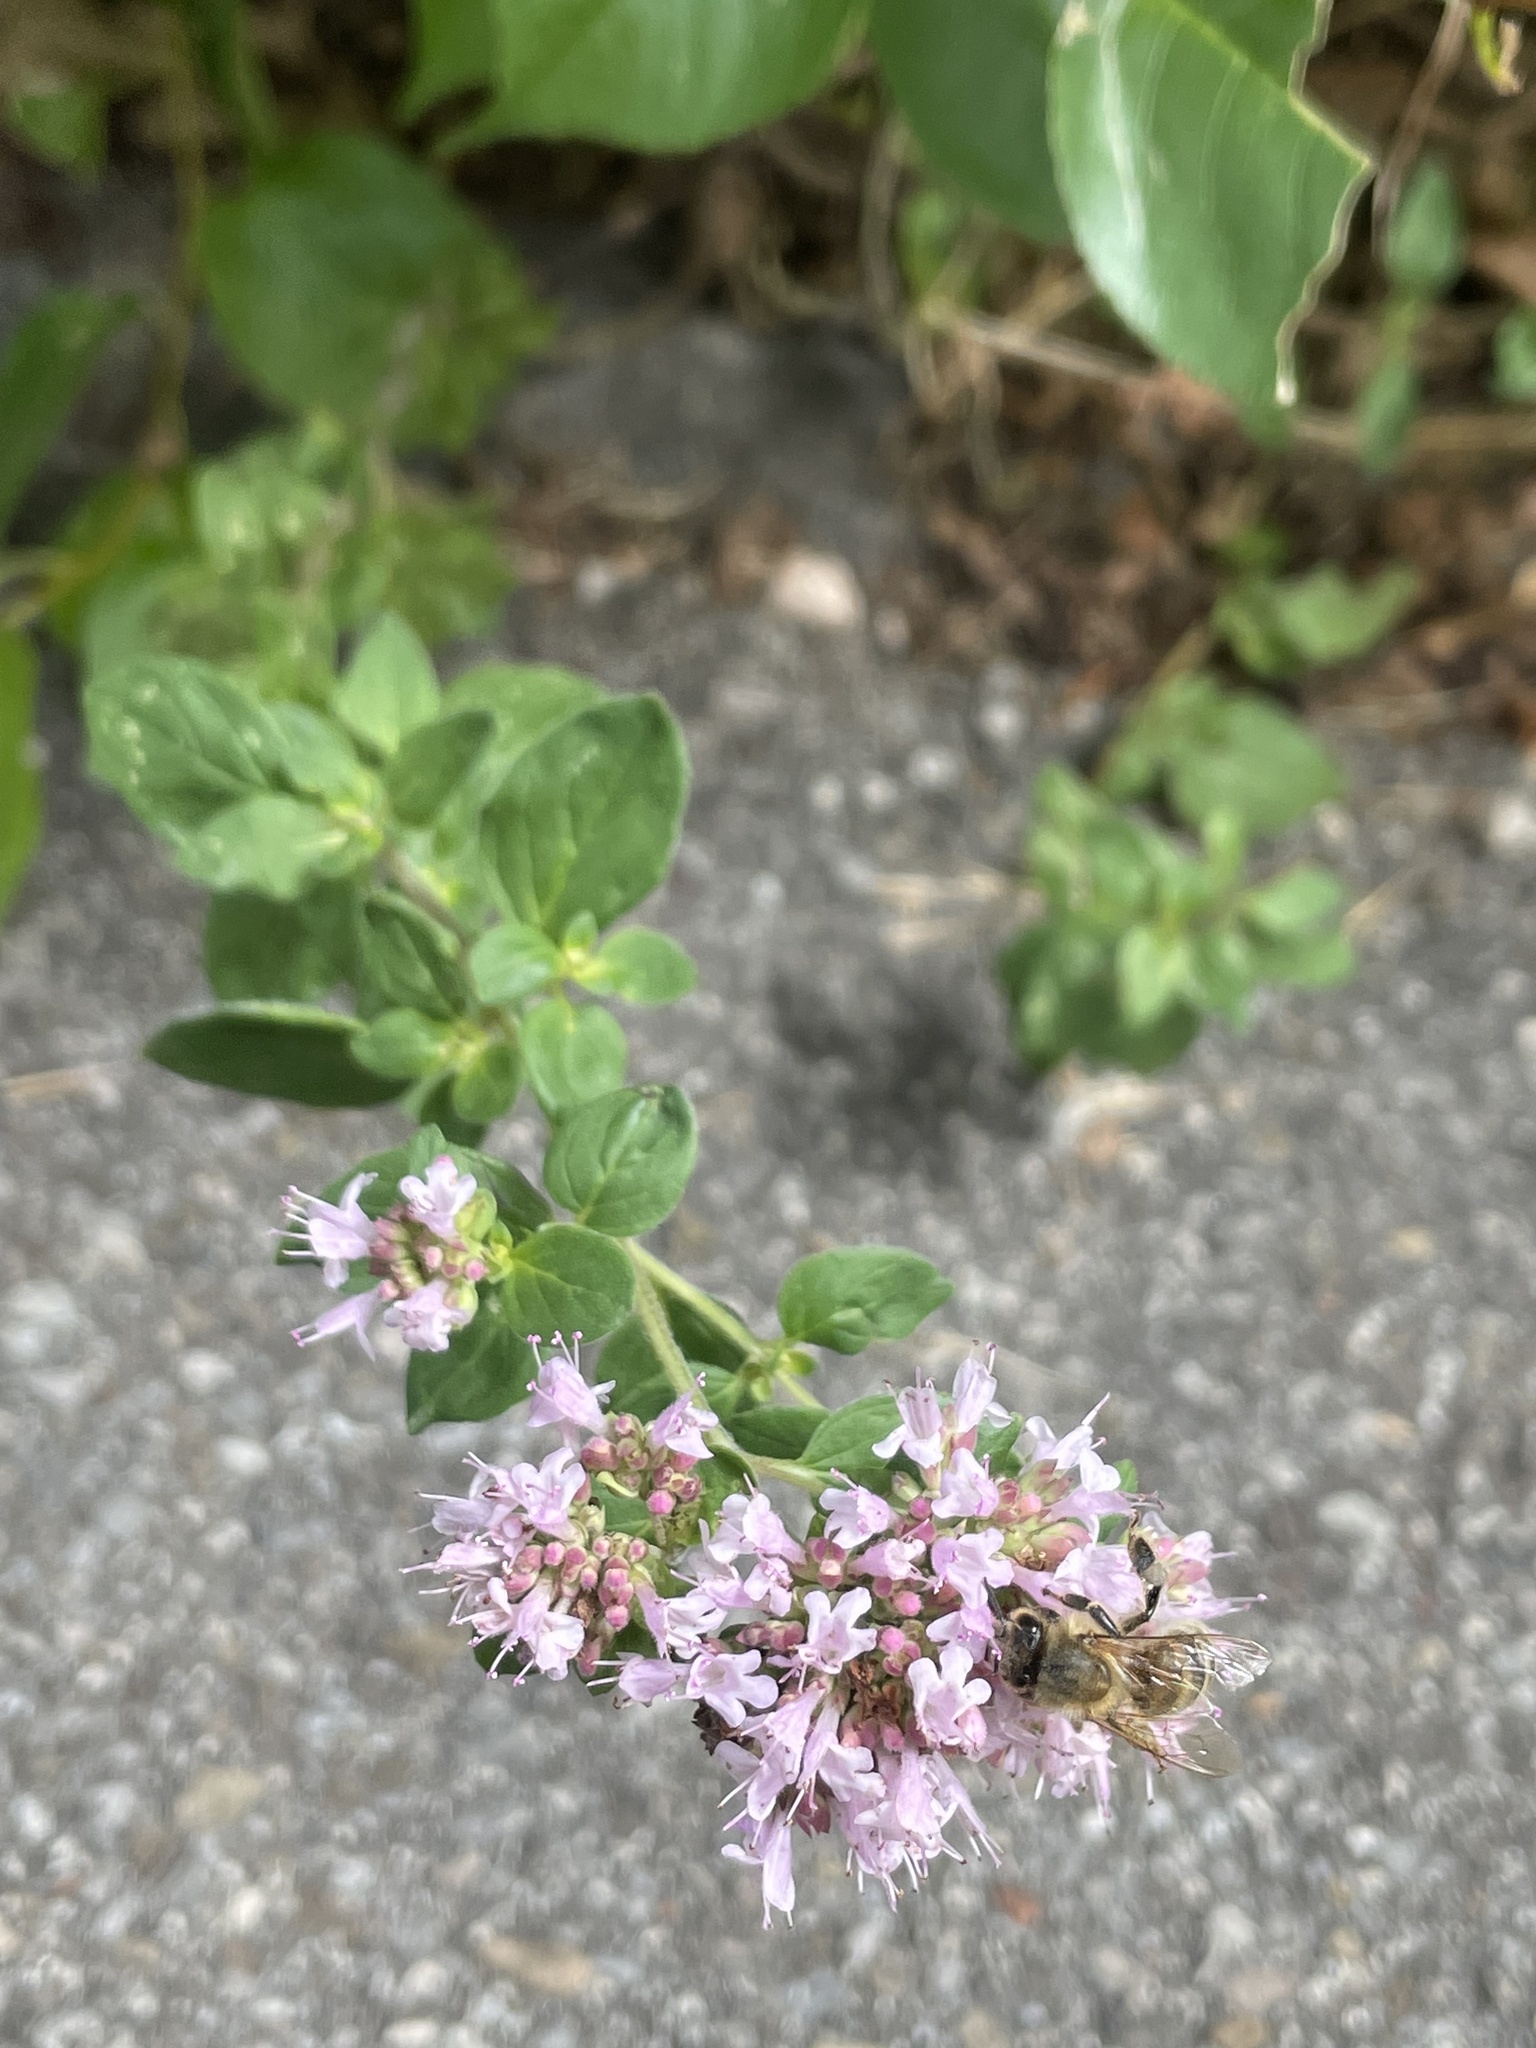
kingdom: Plantae
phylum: Tracheophyta
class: Magnoliopsida
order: Lamiales
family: Lamiaceae
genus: Origanum
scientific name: Origanum vulgare
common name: Wild marjoram
